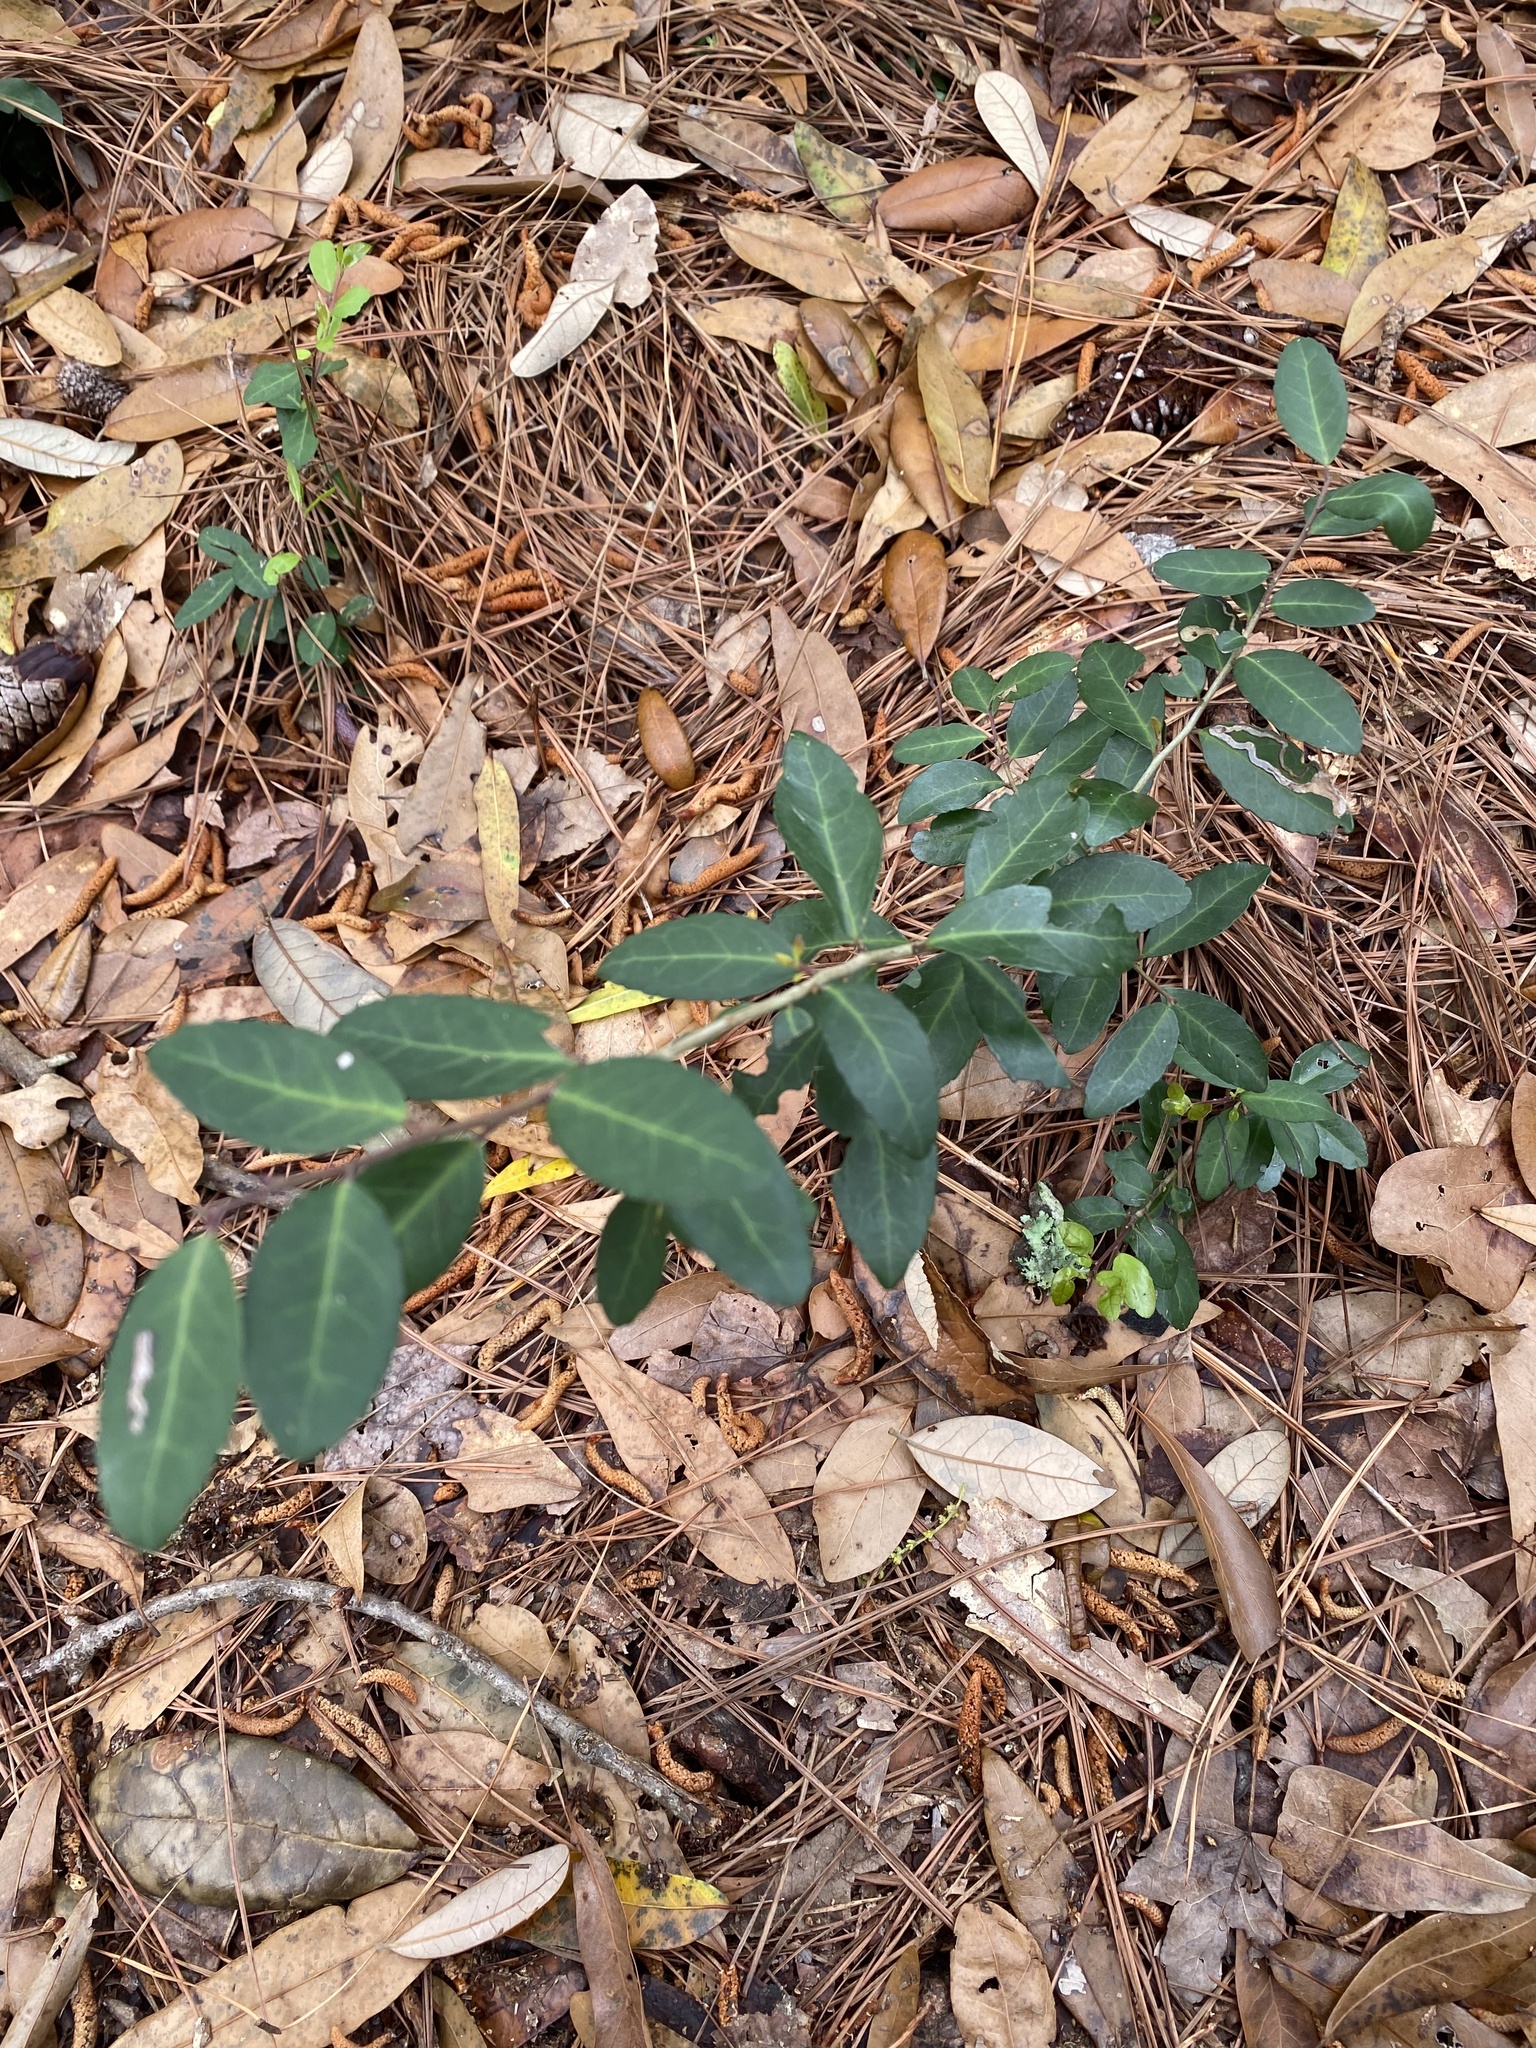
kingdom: Plantae
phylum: Tracheophyta
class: Magnoliopsida
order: Aquifoliales
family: Aquifoliaceae
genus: Ilex
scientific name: Ilex vomitoria
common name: Yaupon holly
